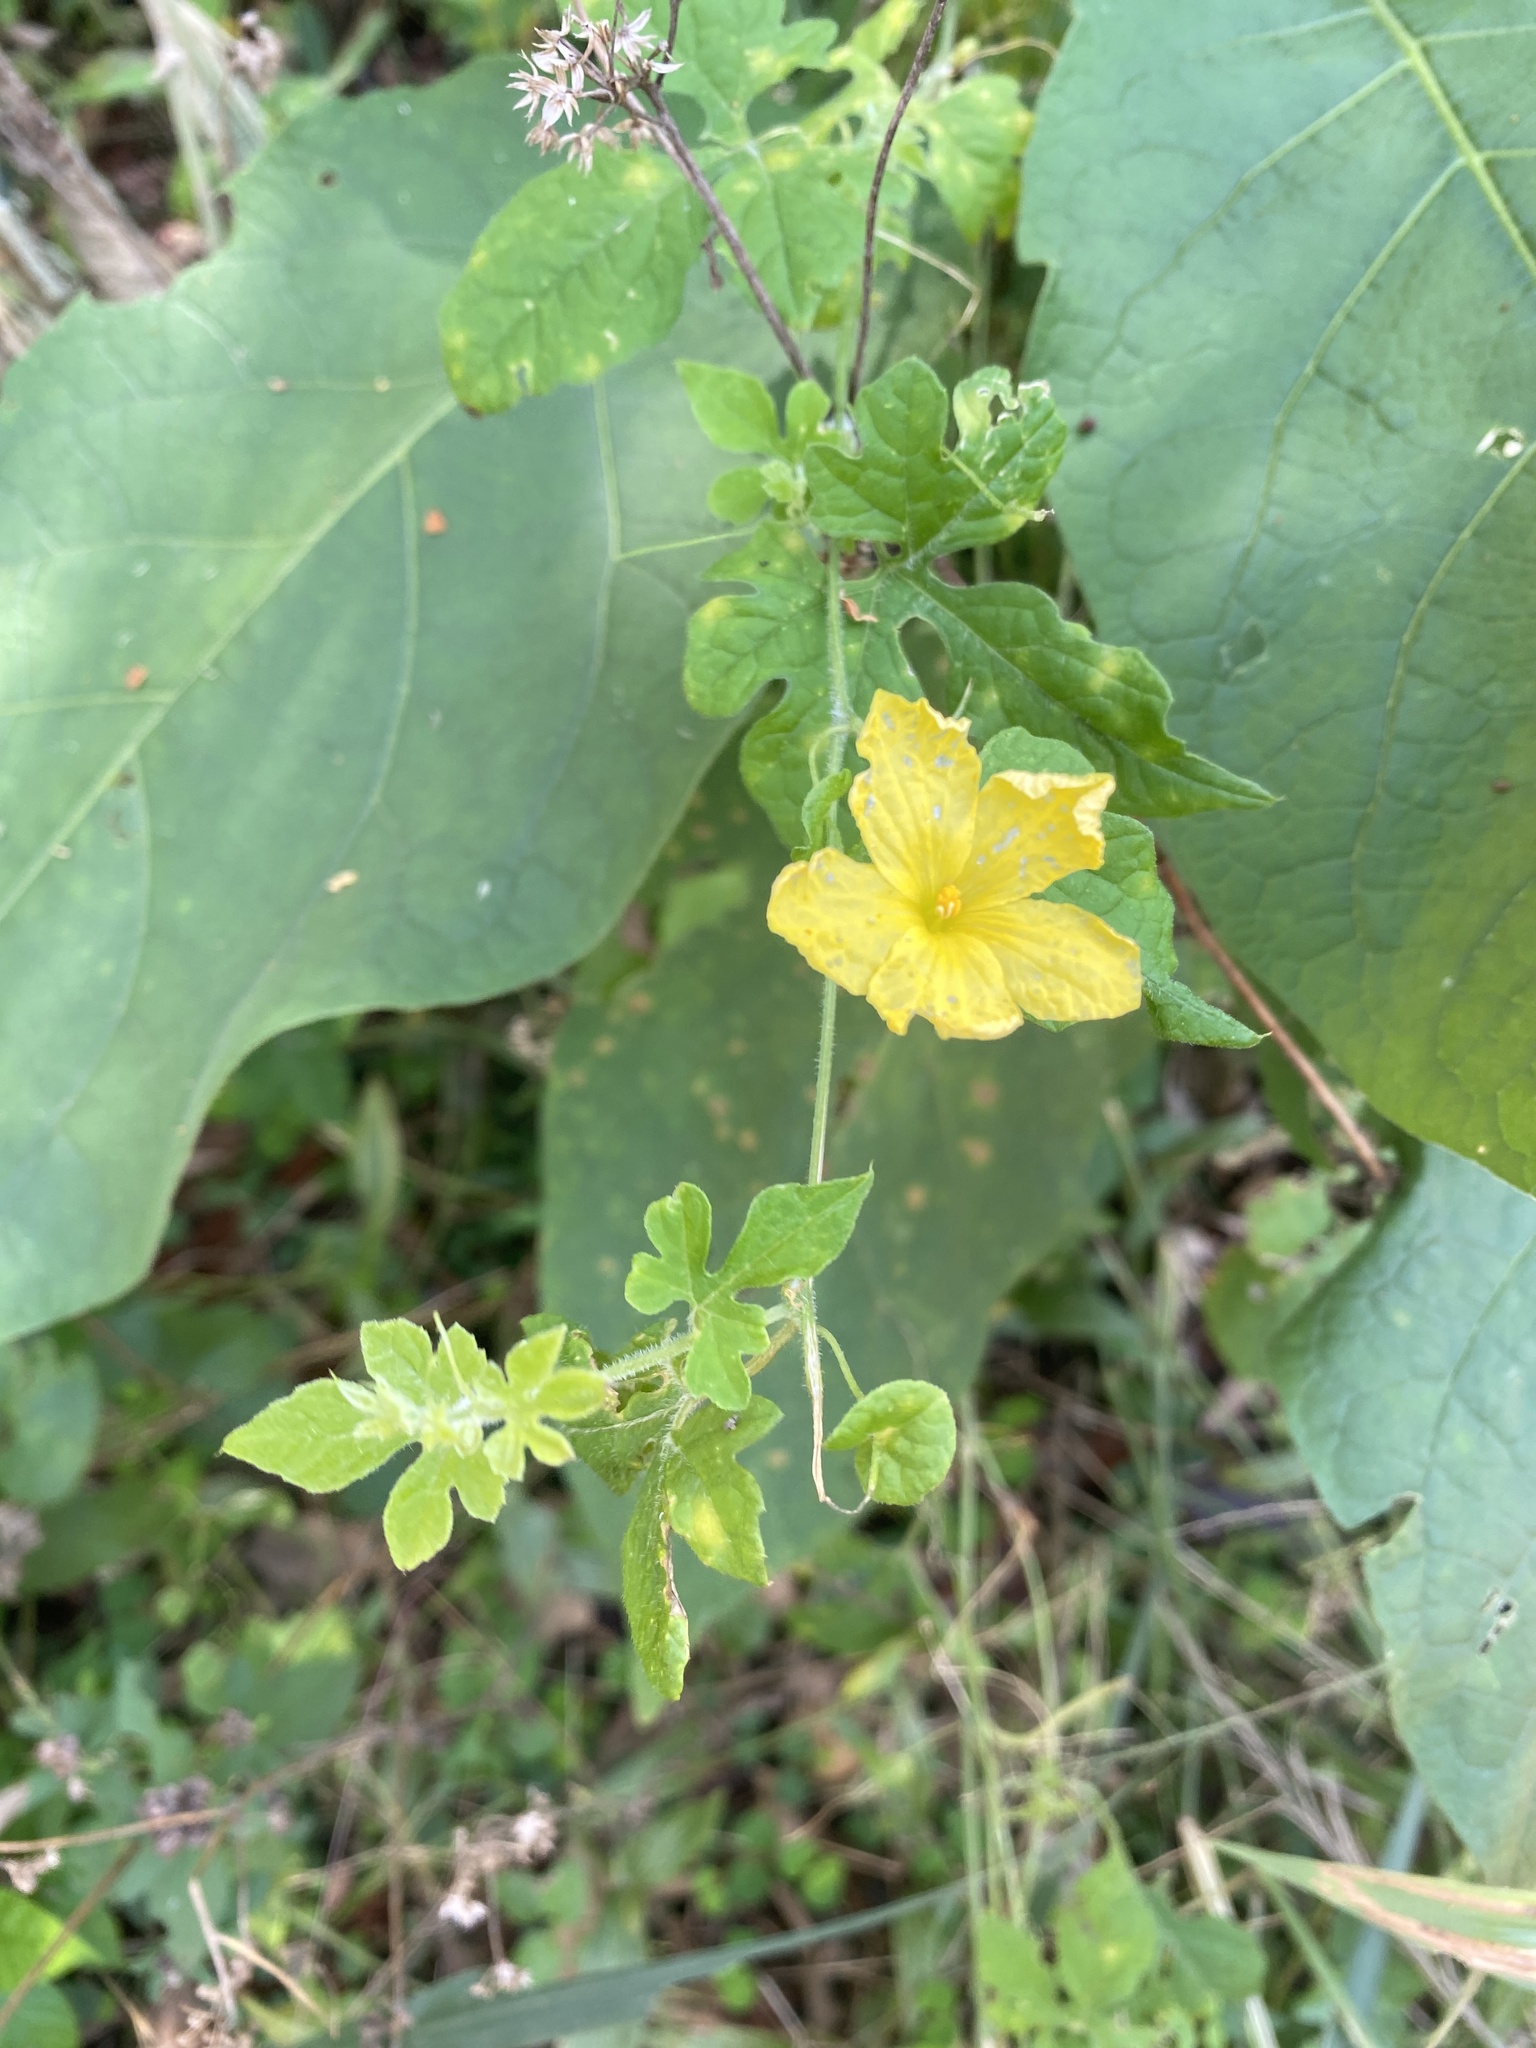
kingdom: Plantae
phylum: Tracheophyta
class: Magnoliopsida
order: Cucurbitales
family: Cucurbitaceae
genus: Momordica
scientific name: Momordica charantia
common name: Balsampear
